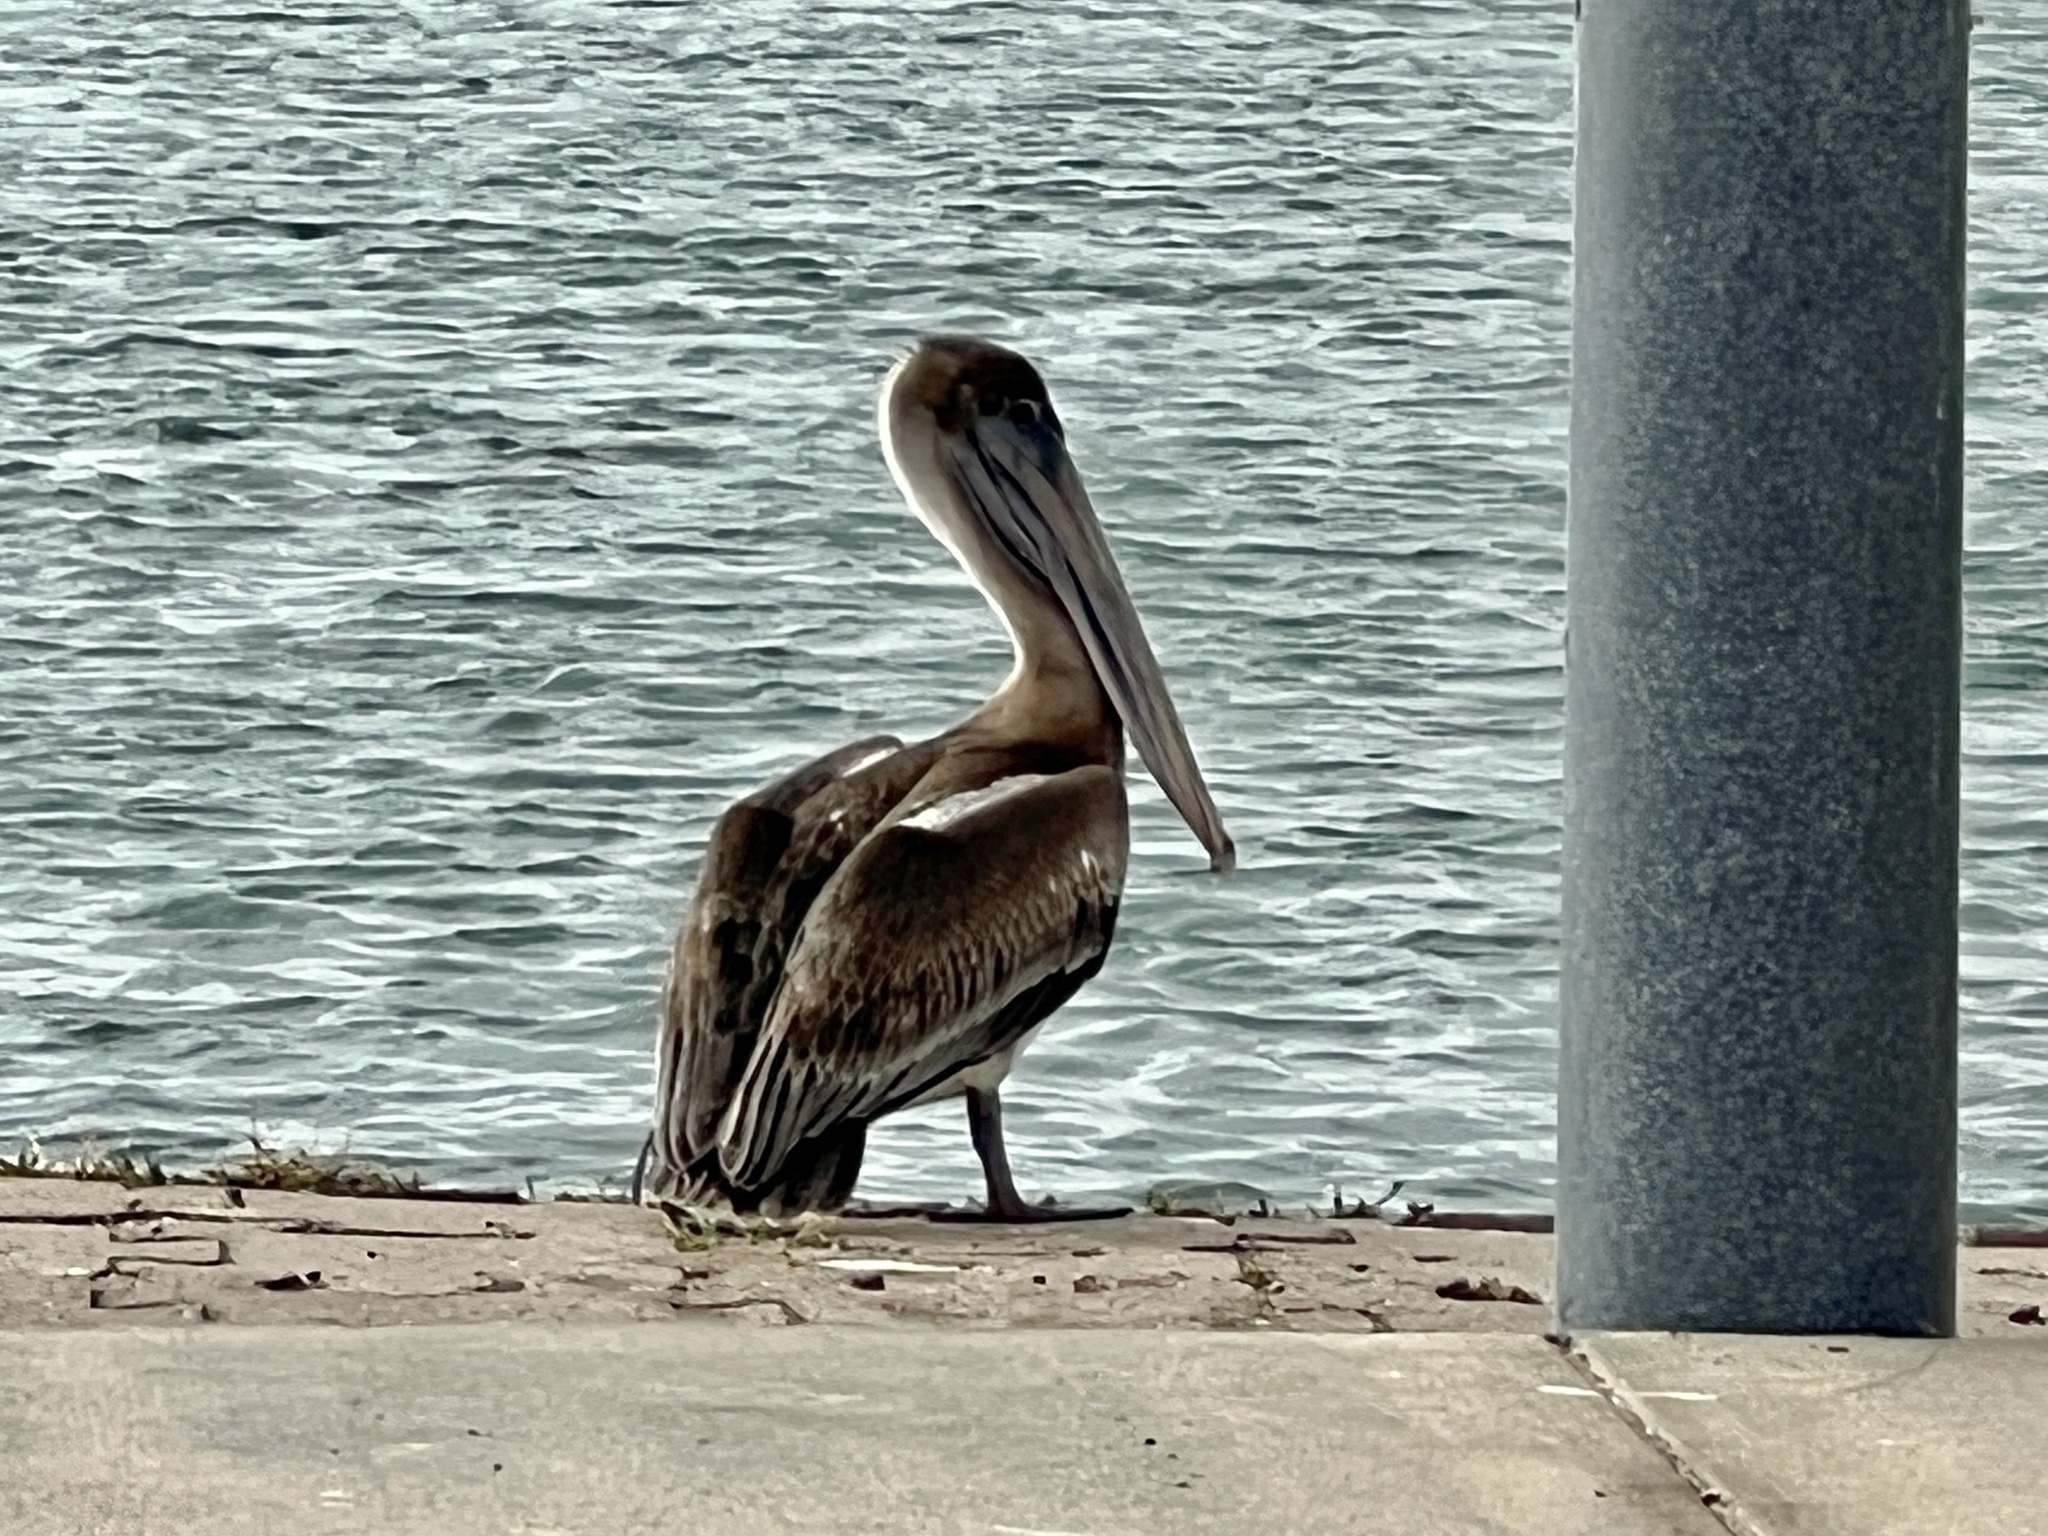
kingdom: Animalia
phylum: Chordata
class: Aves
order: Pelecaniformes
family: Pelecanidae
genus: Pelecanus
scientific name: Pelecanus occidentalis
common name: Brown pelican
